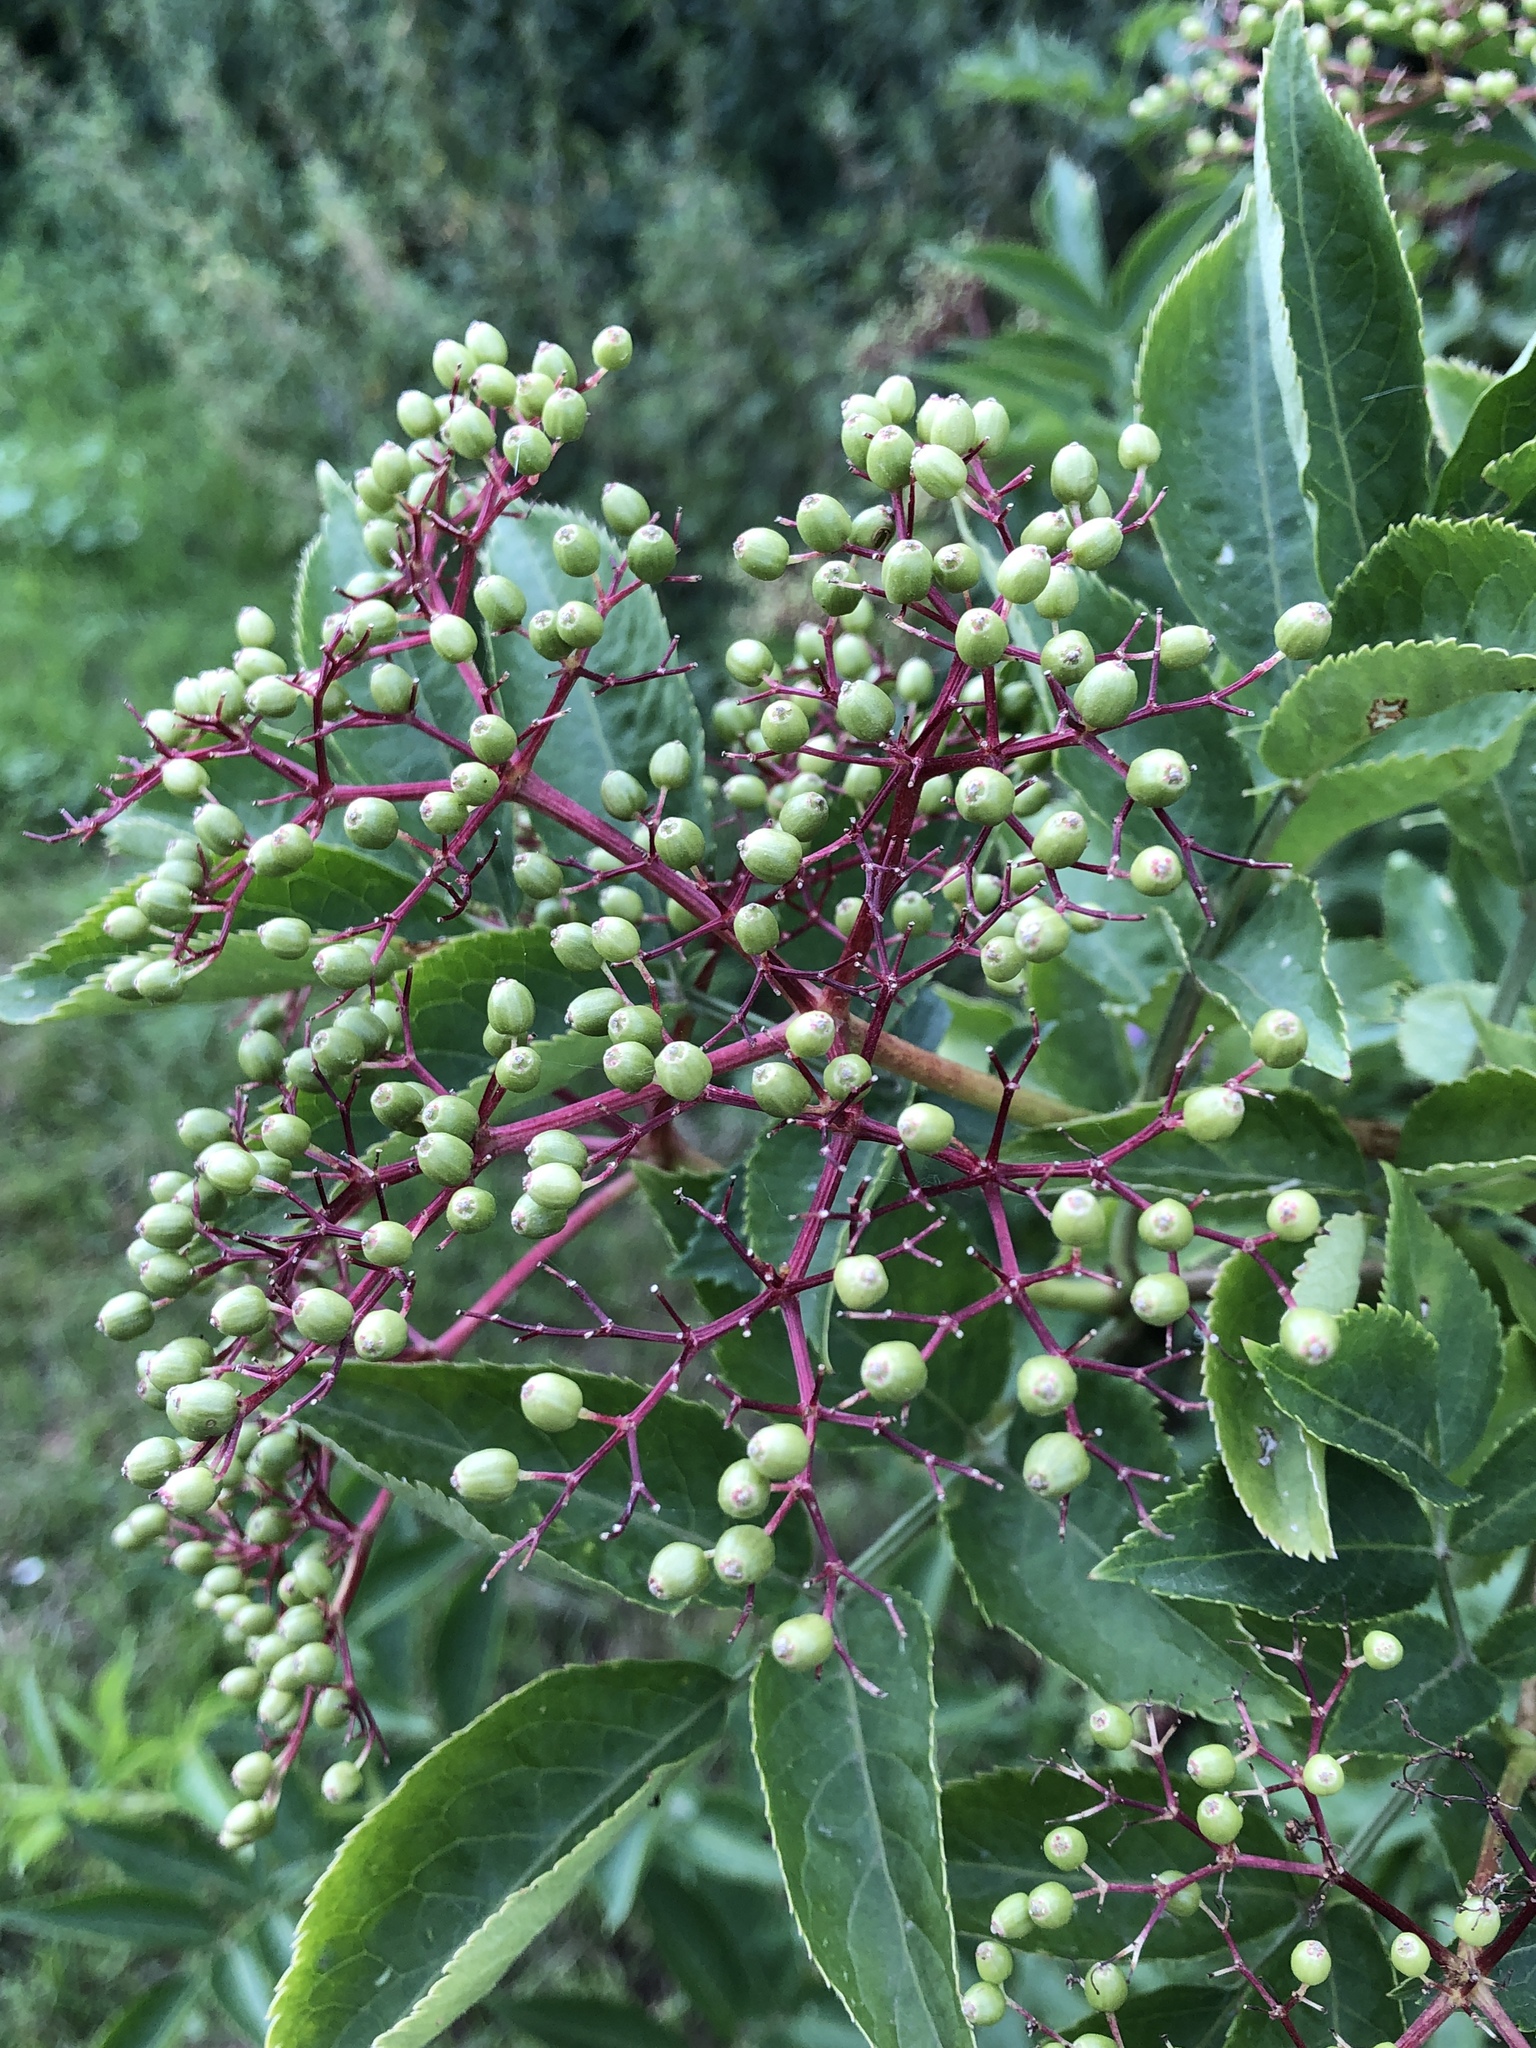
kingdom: Plantae
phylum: Tracheophyta
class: Magnoliopsida
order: Dipsacales
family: Viburnaceae
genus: Sambucus
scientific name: Sambucus nigra
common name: Elder
